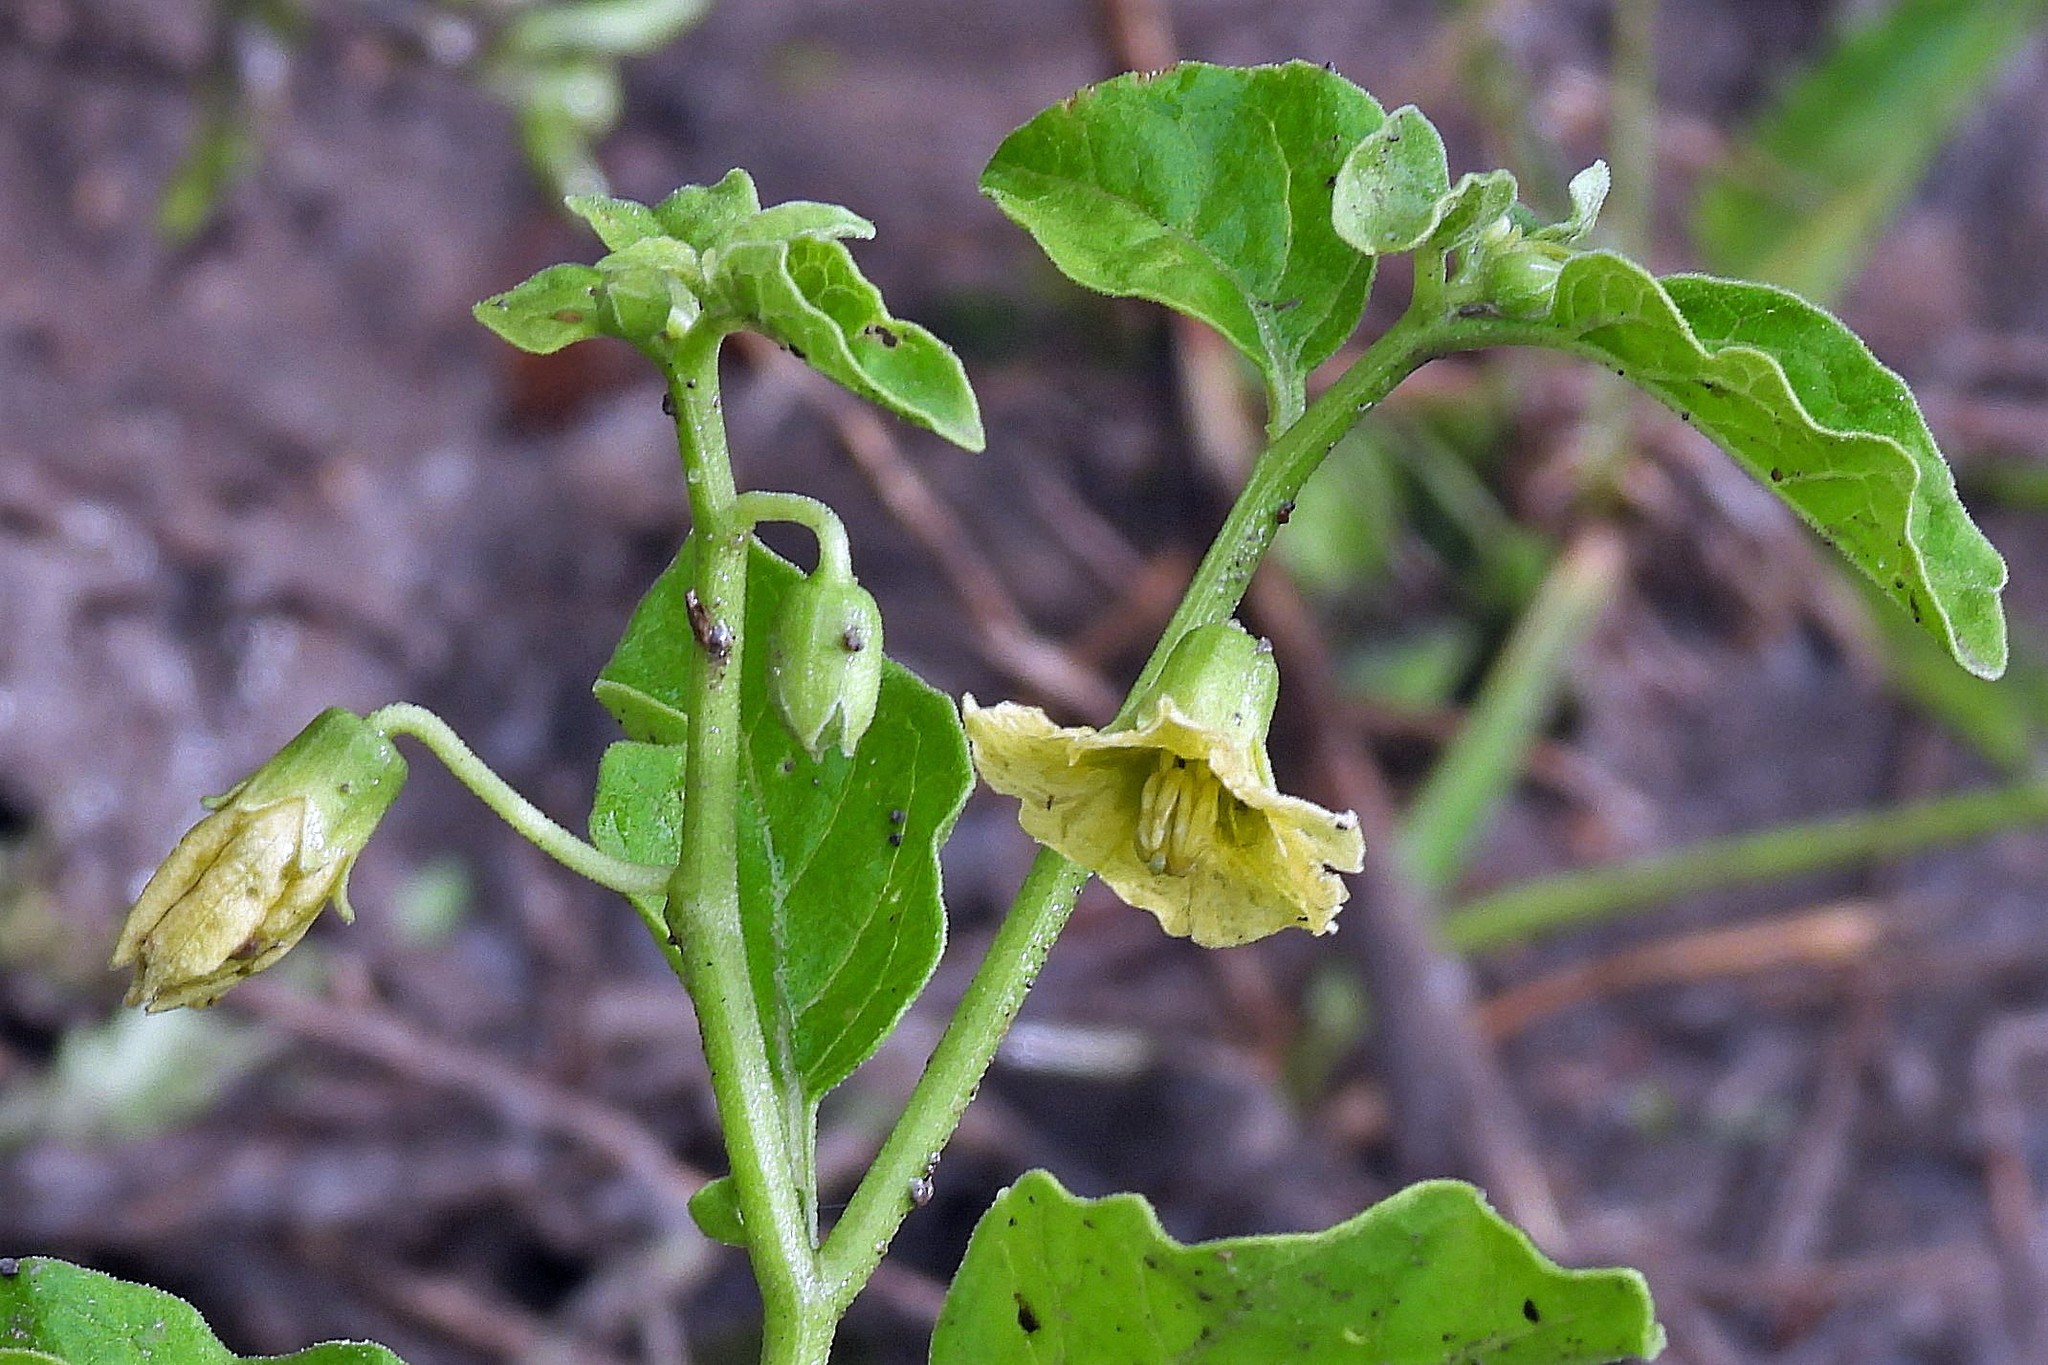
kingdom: Plantae
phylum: Tracheophyta
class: Magnoliopsida
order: Solanales
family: Solanaceae
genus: Physalis
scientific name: Physalis viscosa
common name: Stellate ground-cherry
